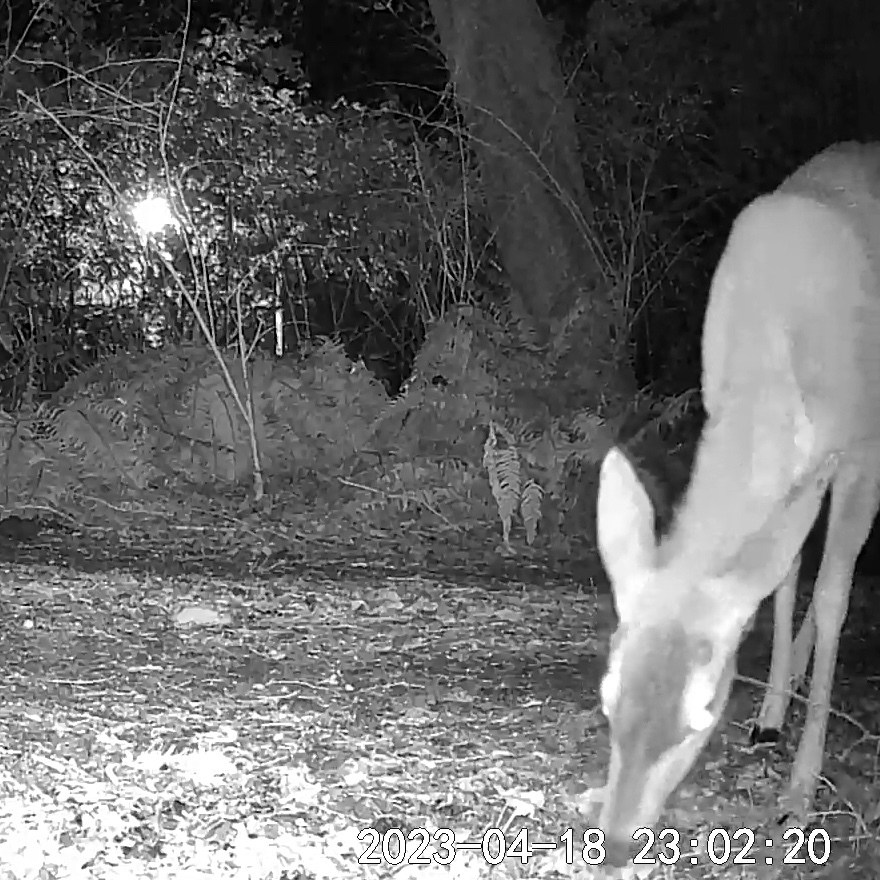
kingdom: Animalia
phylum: Chordata
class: Mammalia
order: Artiodactyla
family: Cervidae
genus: Odocoileus
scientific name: Odocoileus hemionus
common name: Mule deer
